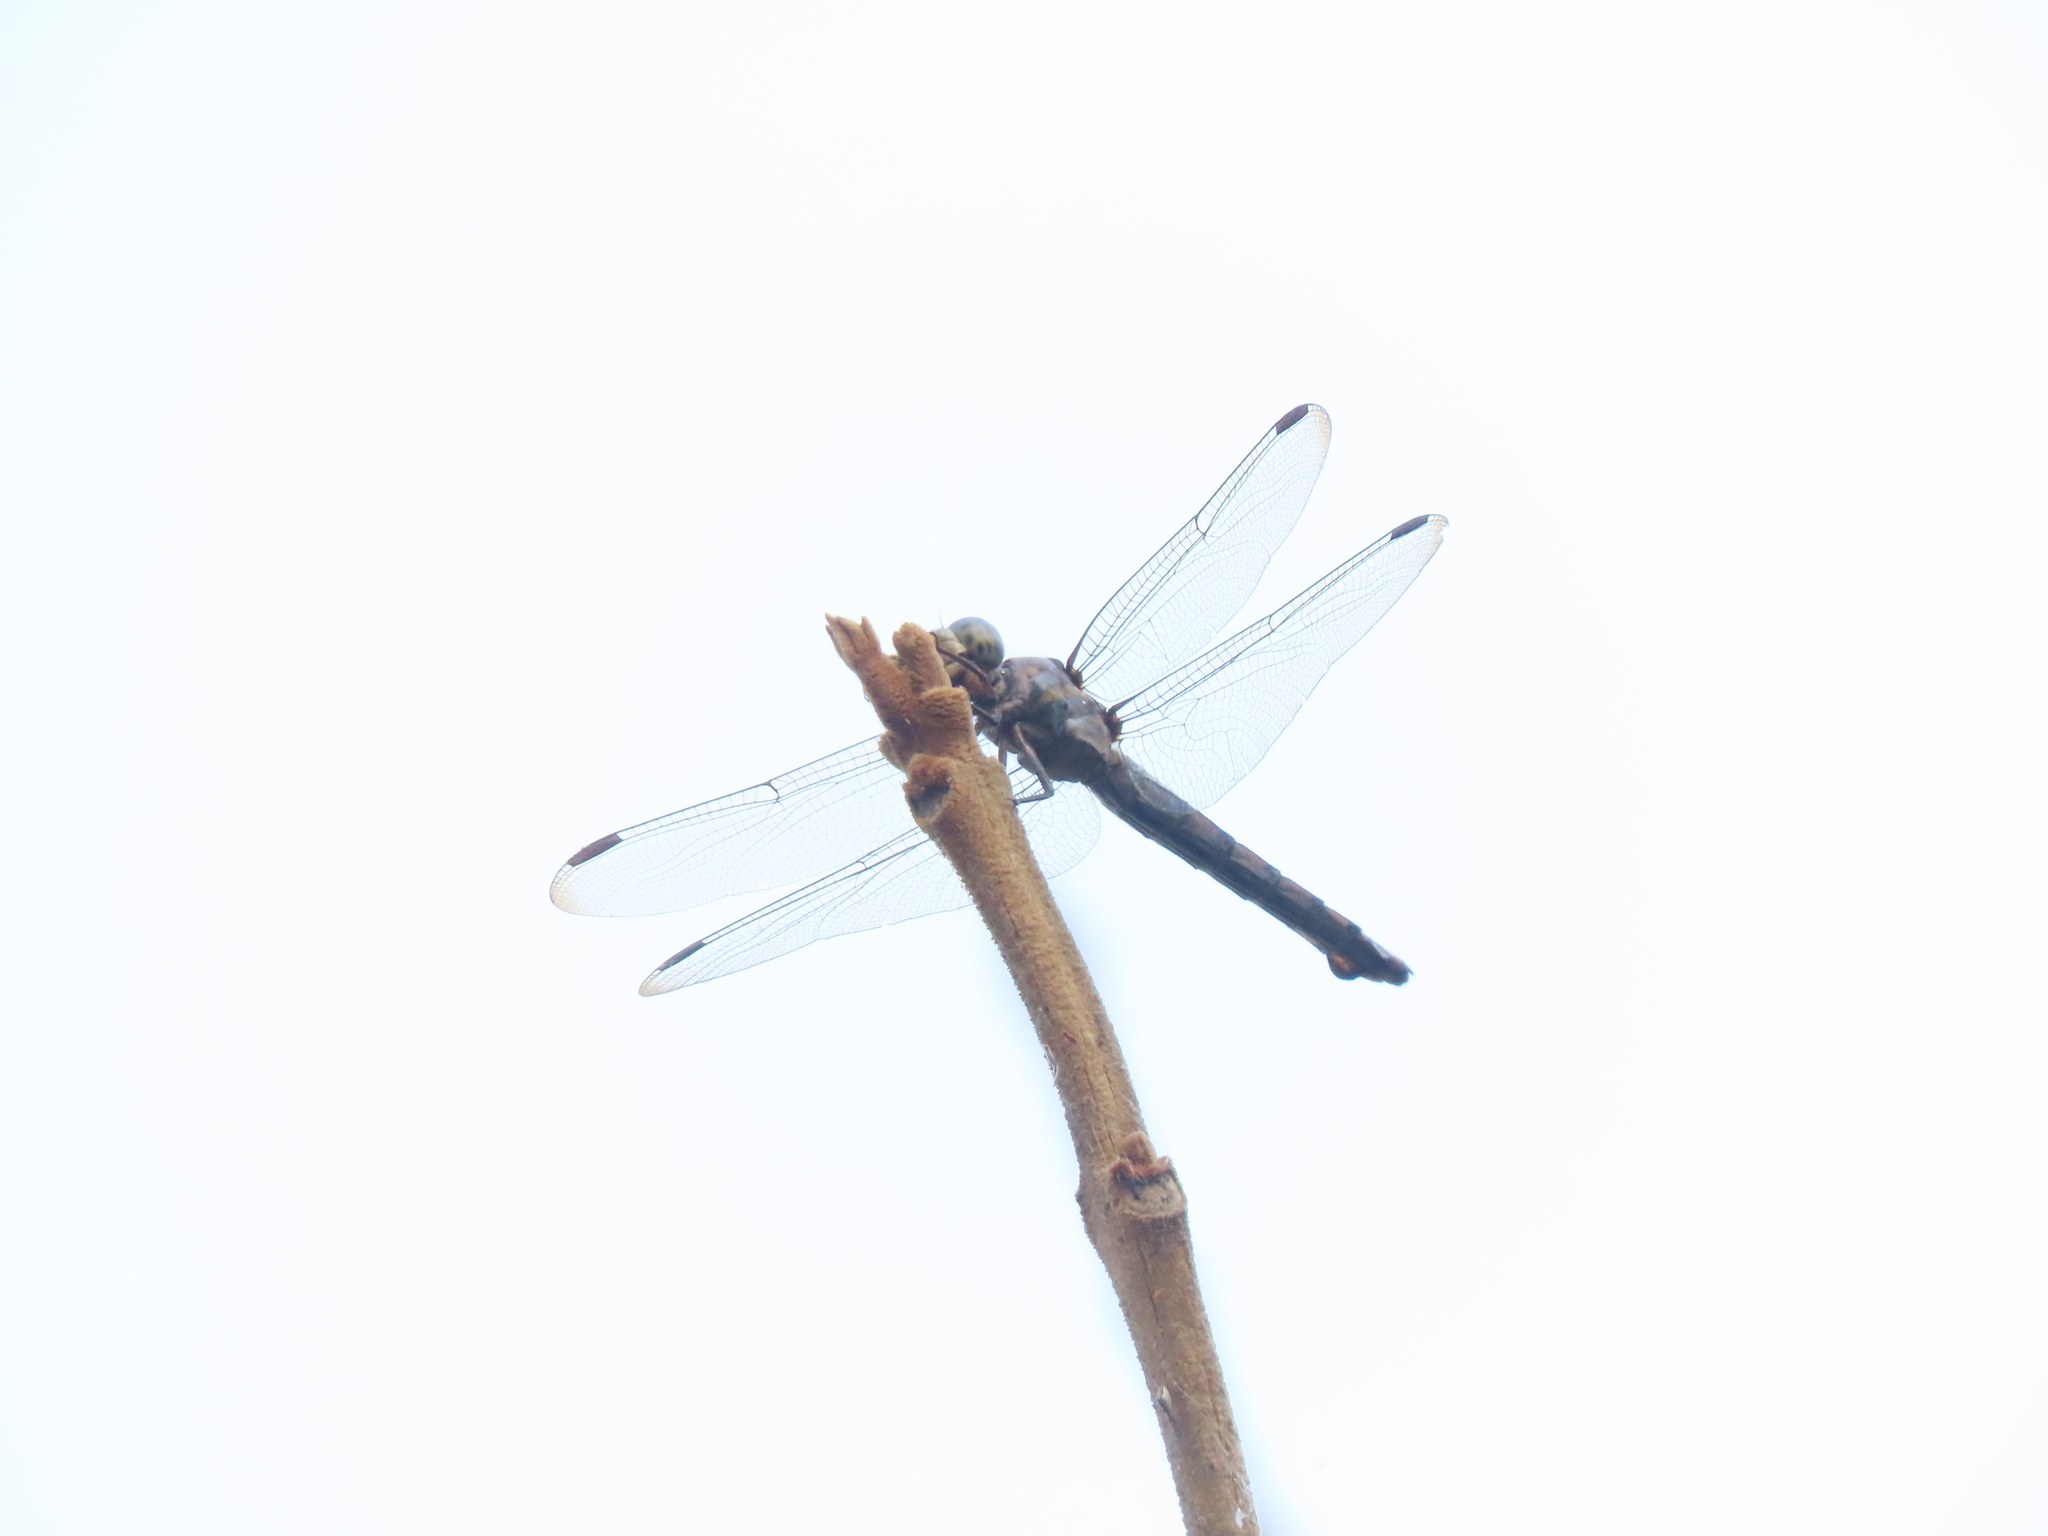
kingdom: Animalia
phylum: Arthropoda
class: Insecta
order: Odonata
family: Libellulidae
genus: Potamarcha
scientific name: Potamarcha congener
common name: Blue chaser
